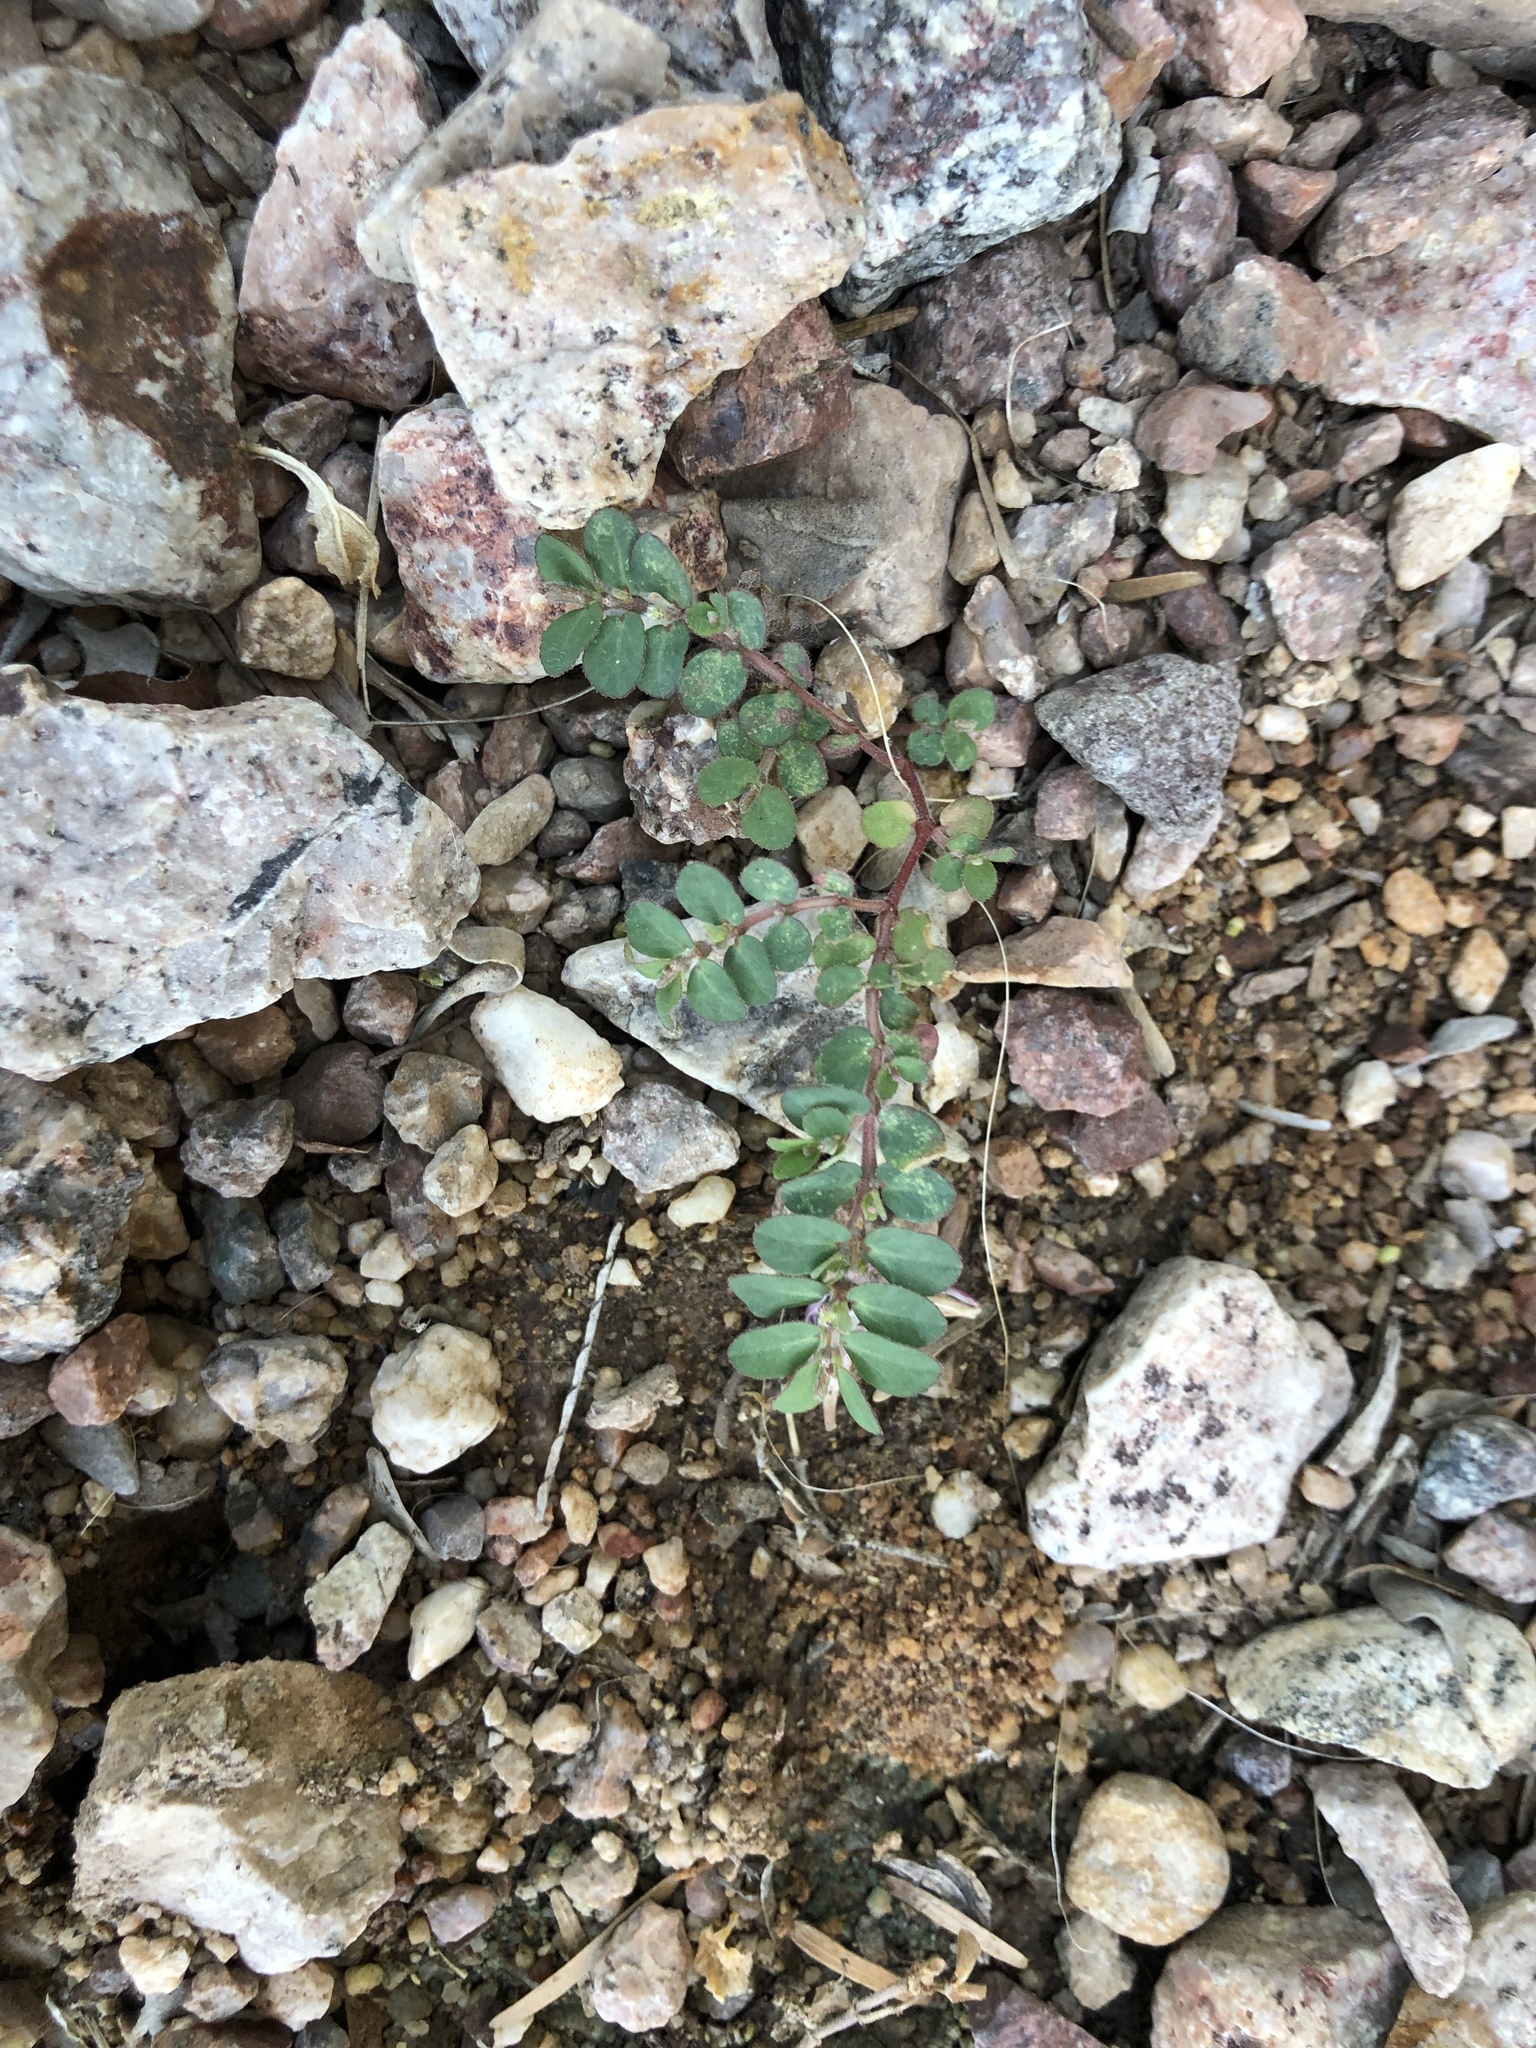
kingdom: Plantae
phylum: Tracheophyta
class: Magnoliopsida
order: Malpighiales
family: Euphorbiaceae
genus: Euphorbia
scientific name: Euphorbia prostrata
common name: Prostrate sandmat
